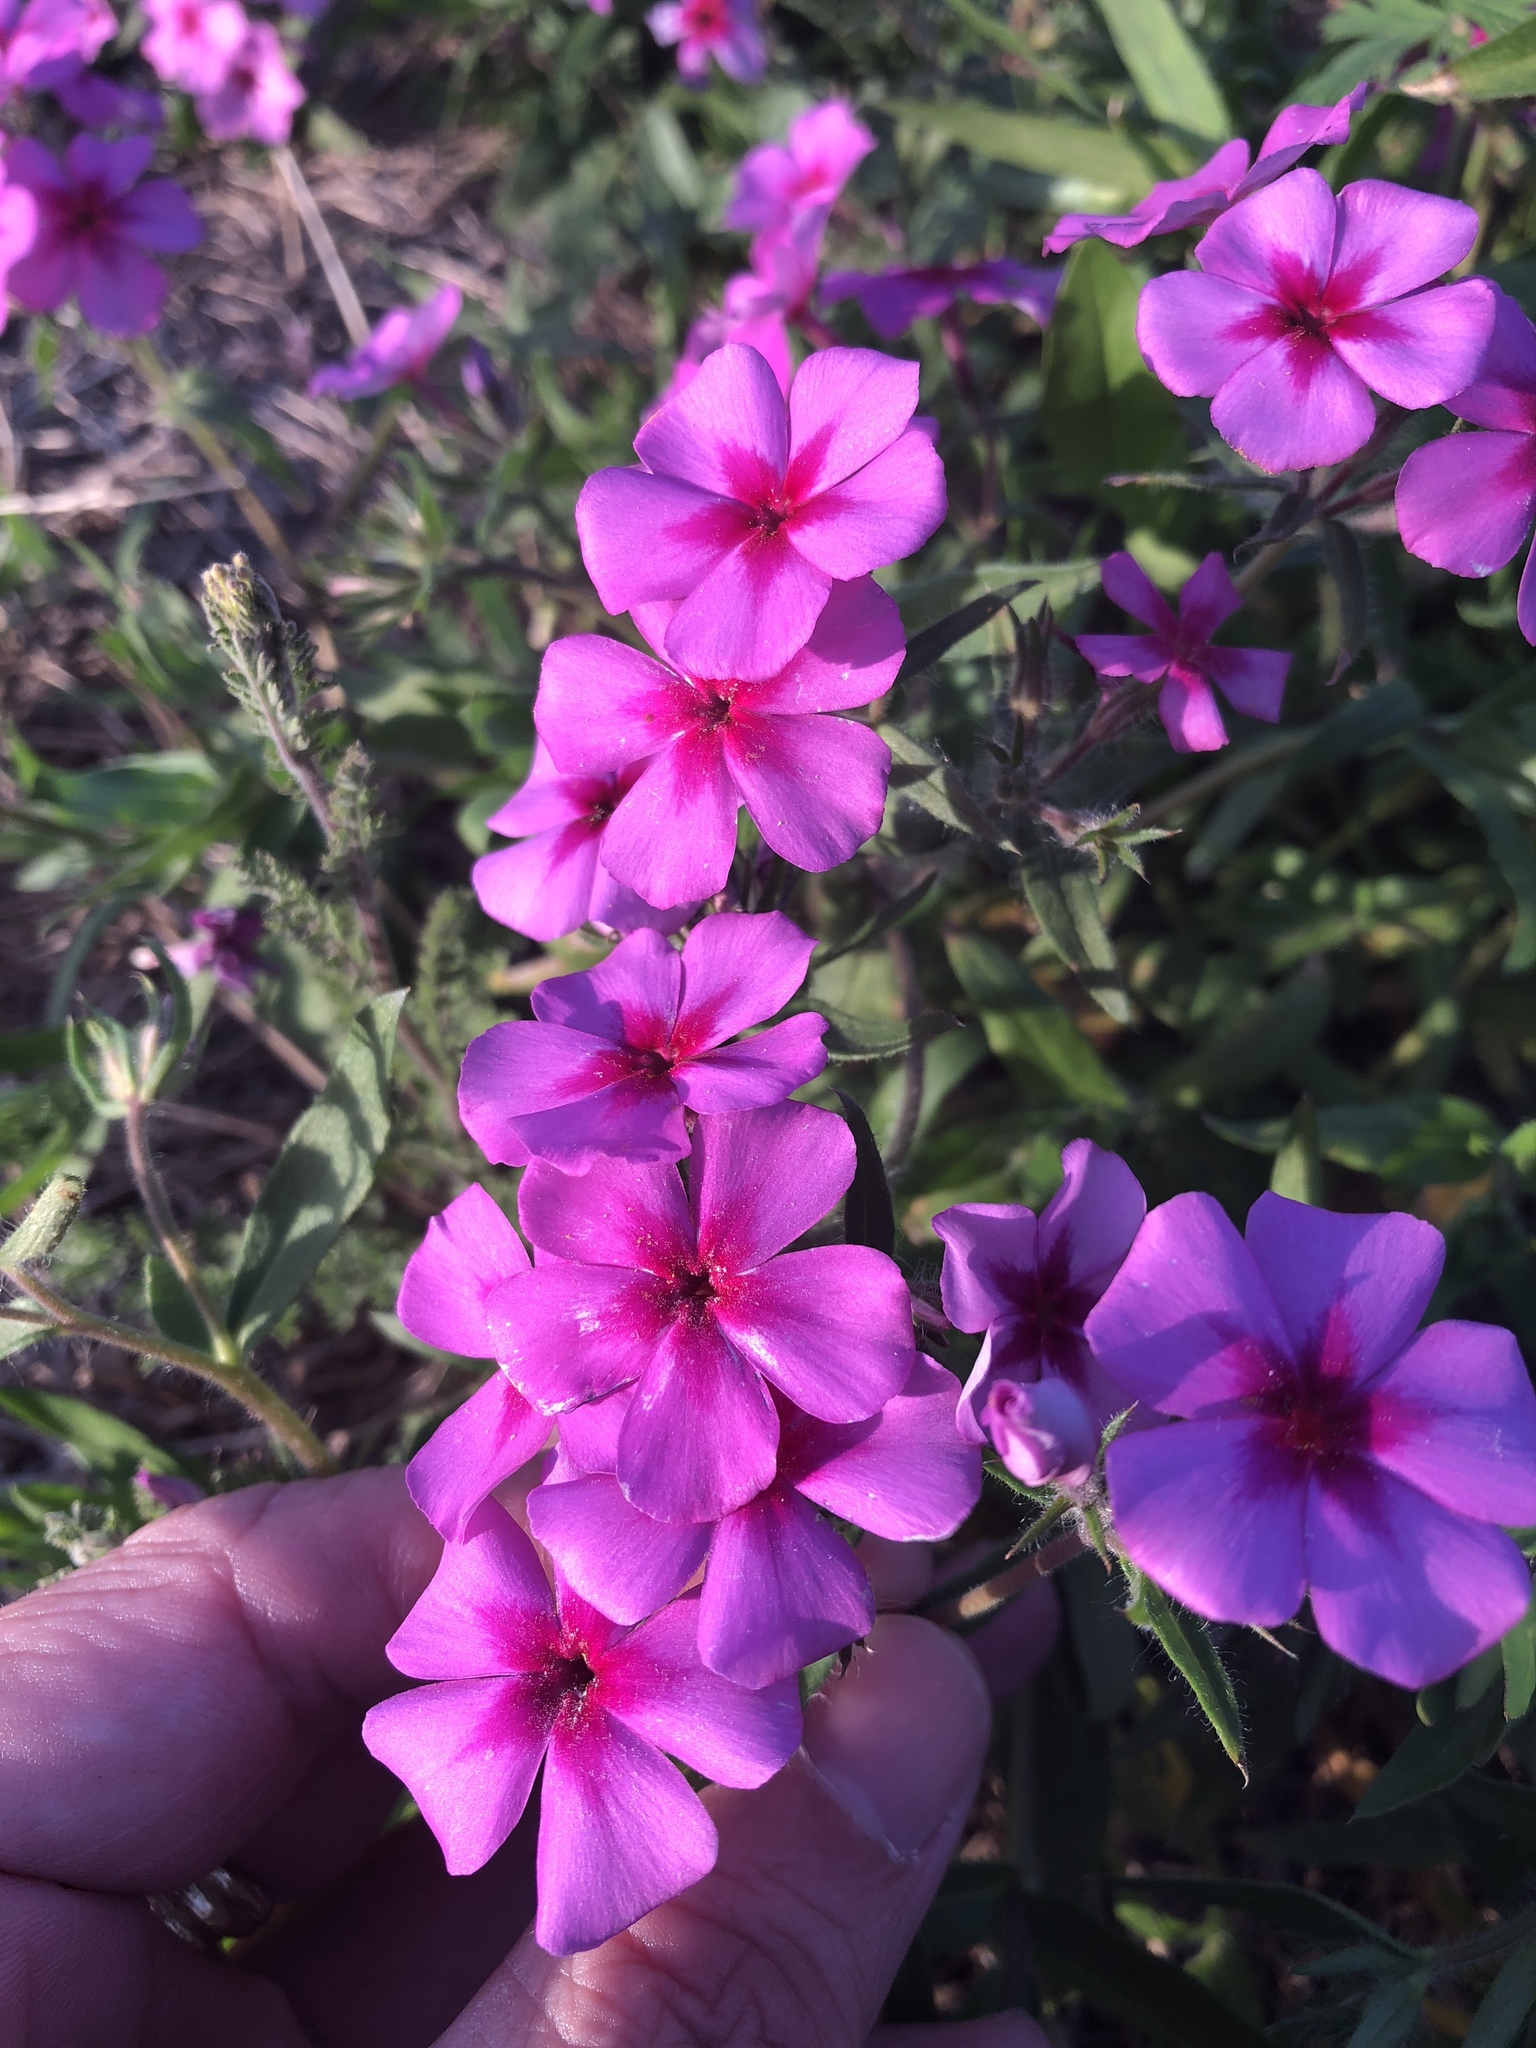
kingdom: Plantae
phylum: Tracheophyta
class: Magnoliopsida
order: Ericales
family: Polemoniaceae
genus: Phlox
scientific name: Phlox drummondii
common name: Drummond's phlox
